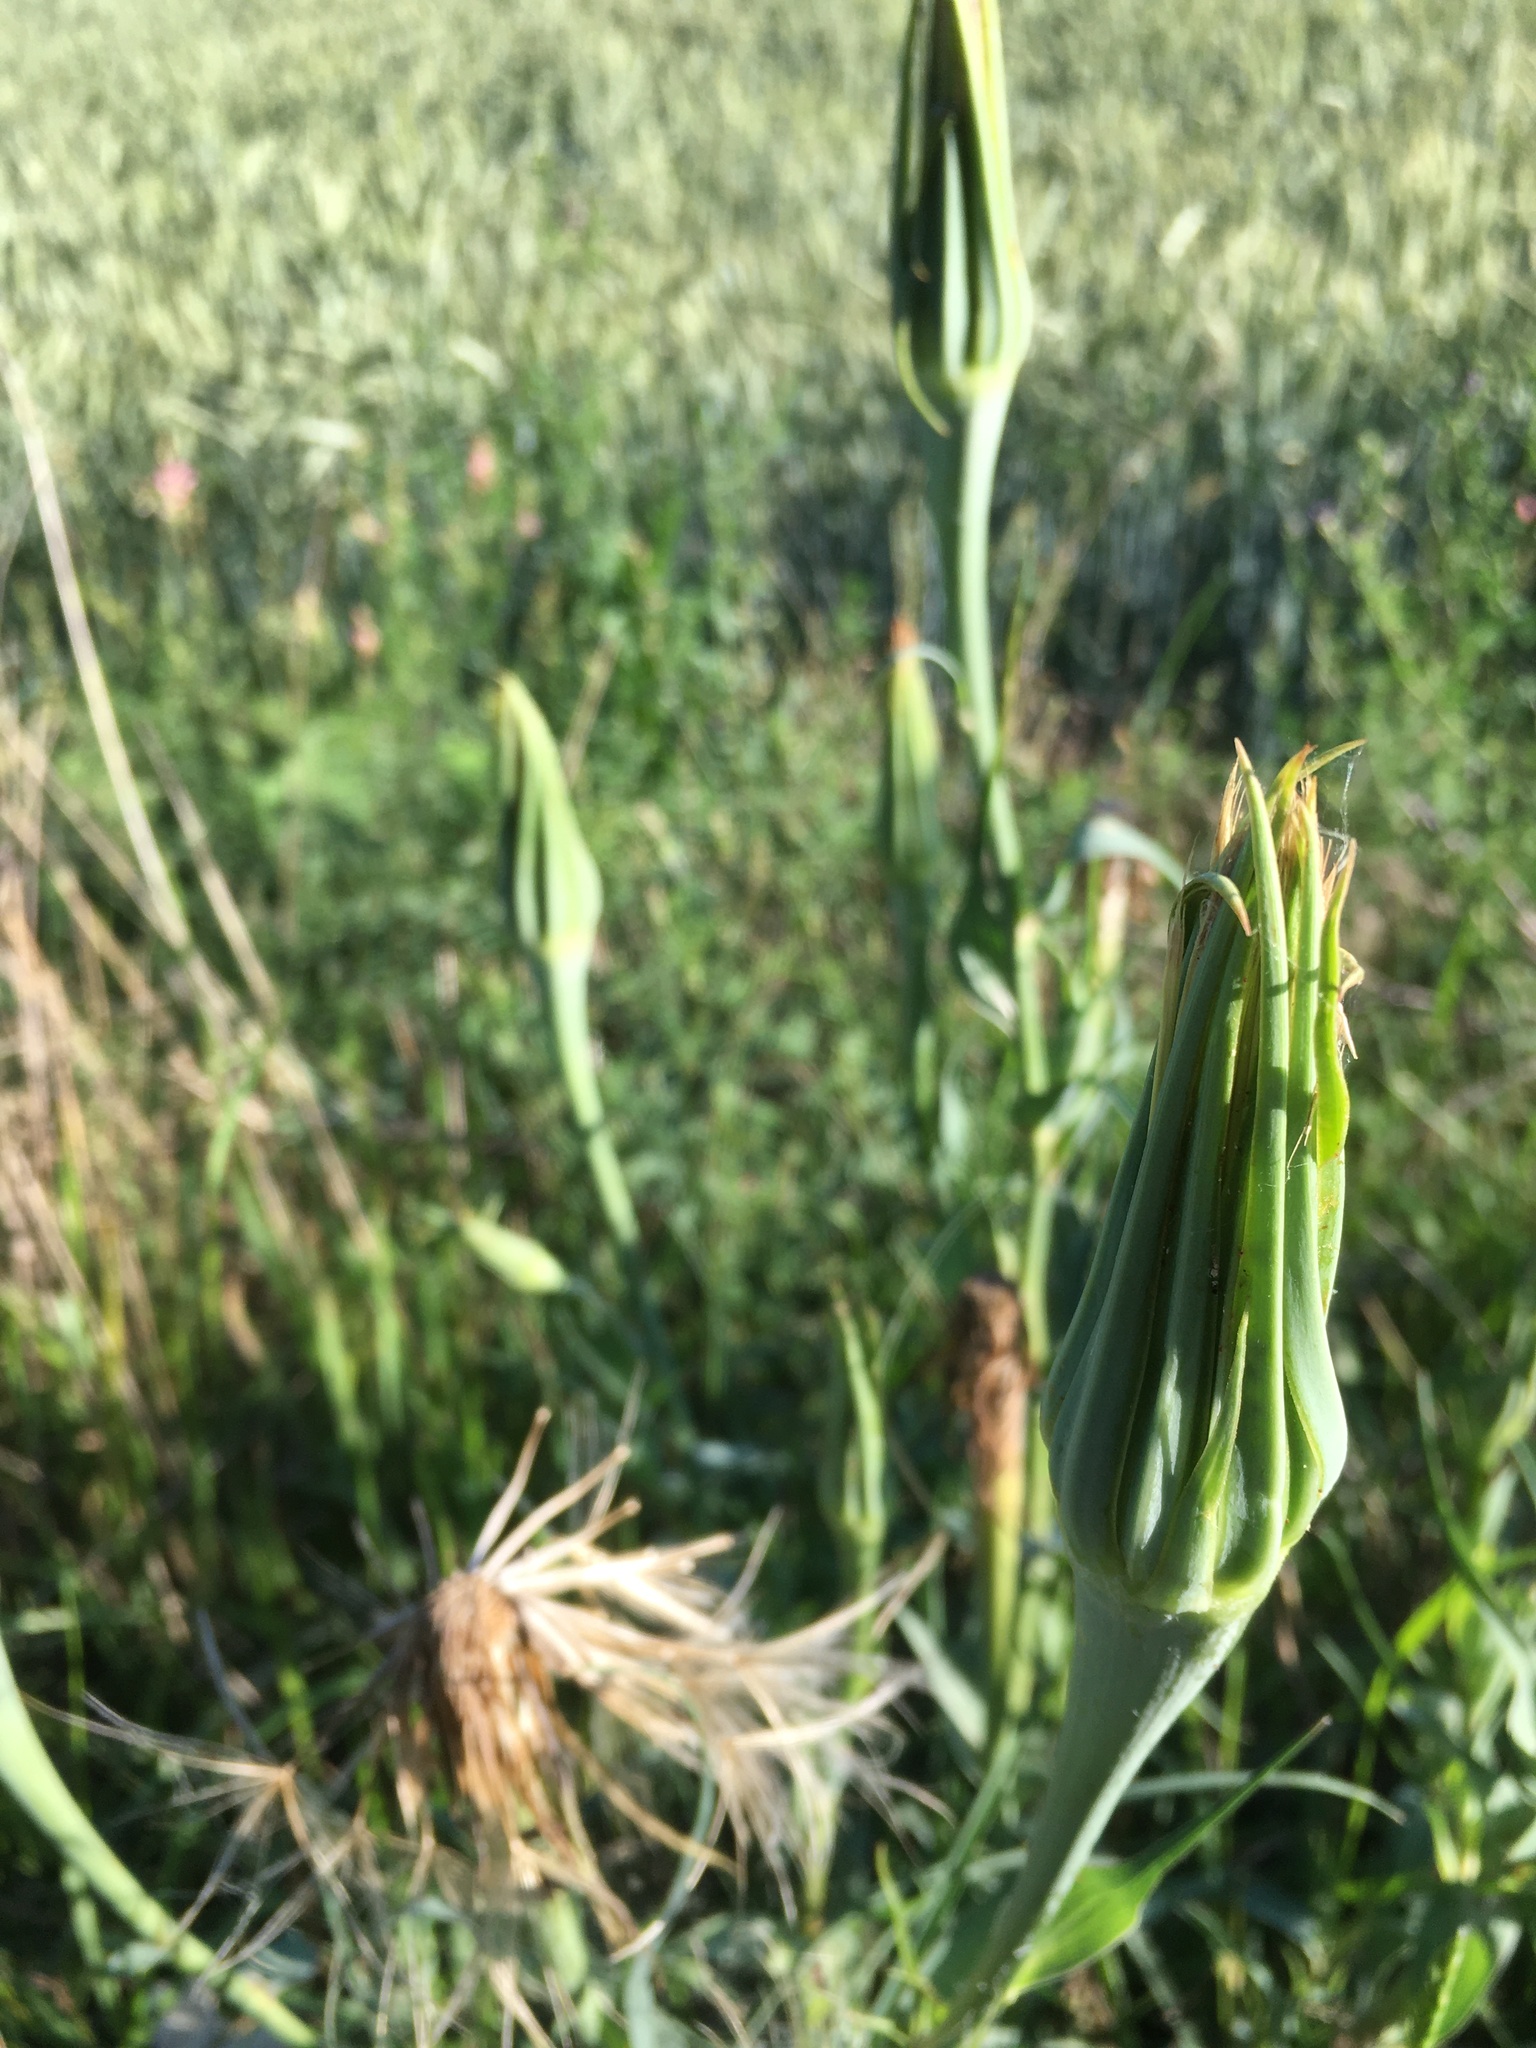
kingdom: Plantae
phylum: Tracheophyta
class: Magnoliopsida
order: Asterales
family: Asteraceae
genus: Tragopogon
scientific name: Tragopogon dubius
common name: Yellow salsify
